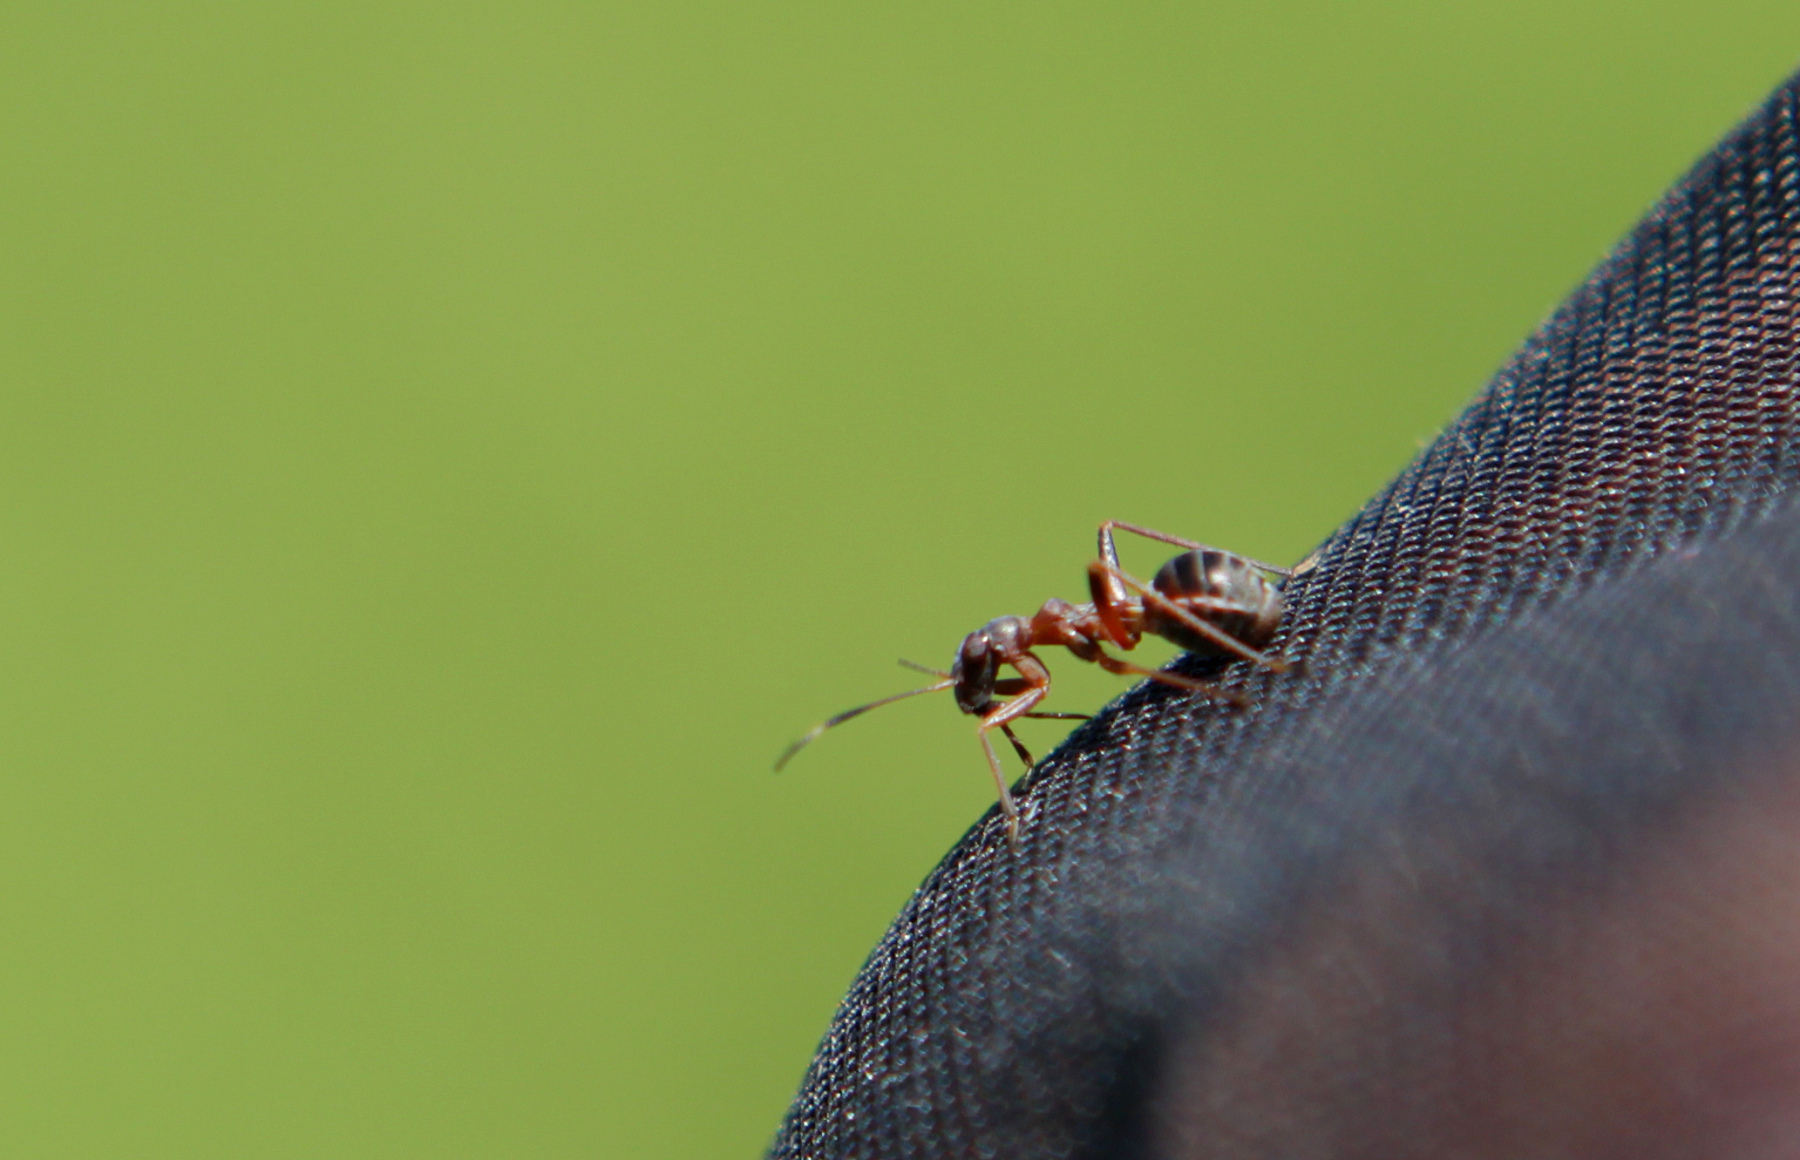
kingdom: Animalia
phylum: Arthropoda
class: Insecta
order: Hemiptera
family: Nabidae
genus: Himacerus
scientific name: Himacerus mirmicoides
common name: Ant damsel bug
